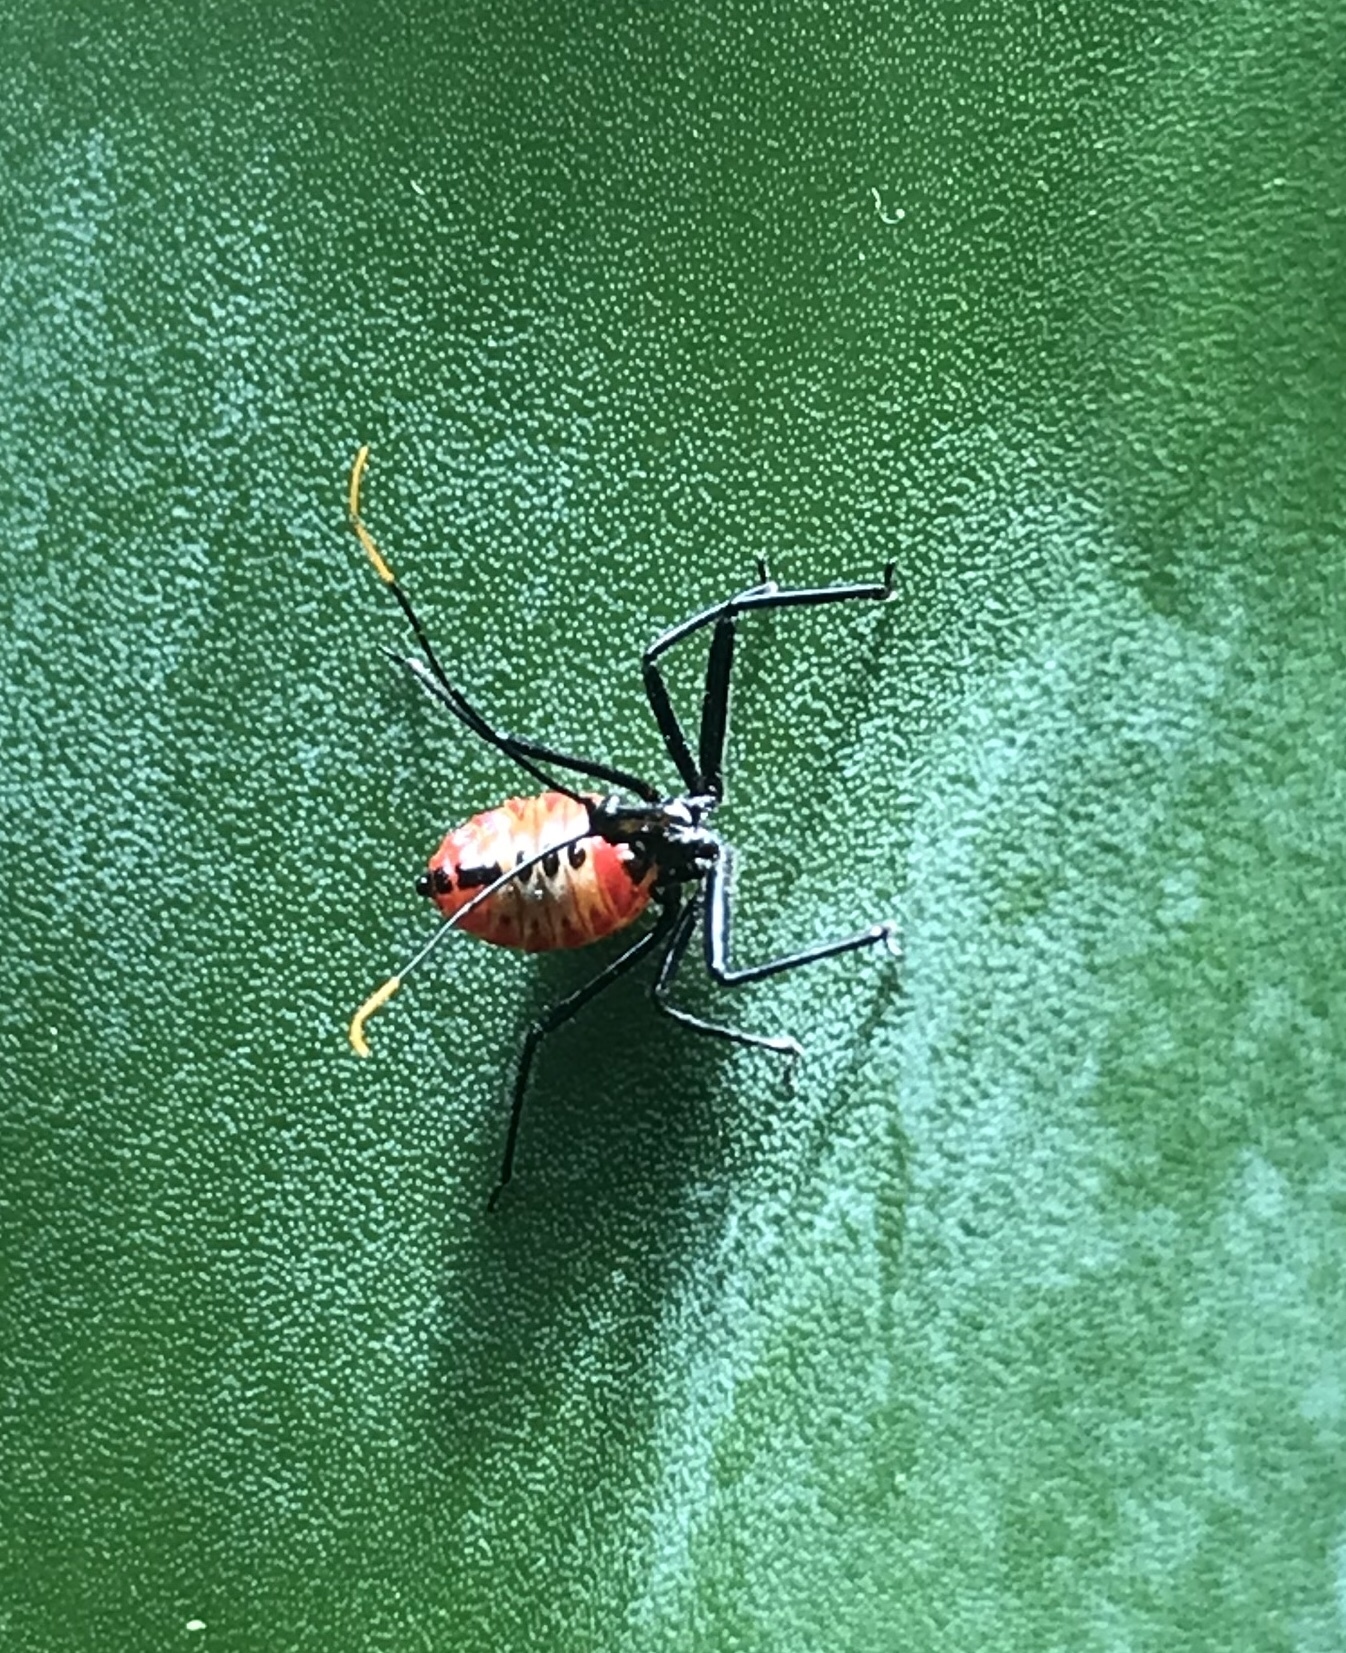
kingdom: Animalia
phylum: Arthropoda
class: Insecta
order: Hemiptera
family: Reduviidae
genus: Arilus
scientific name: Arilus cristatus
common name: North american wheel bug
